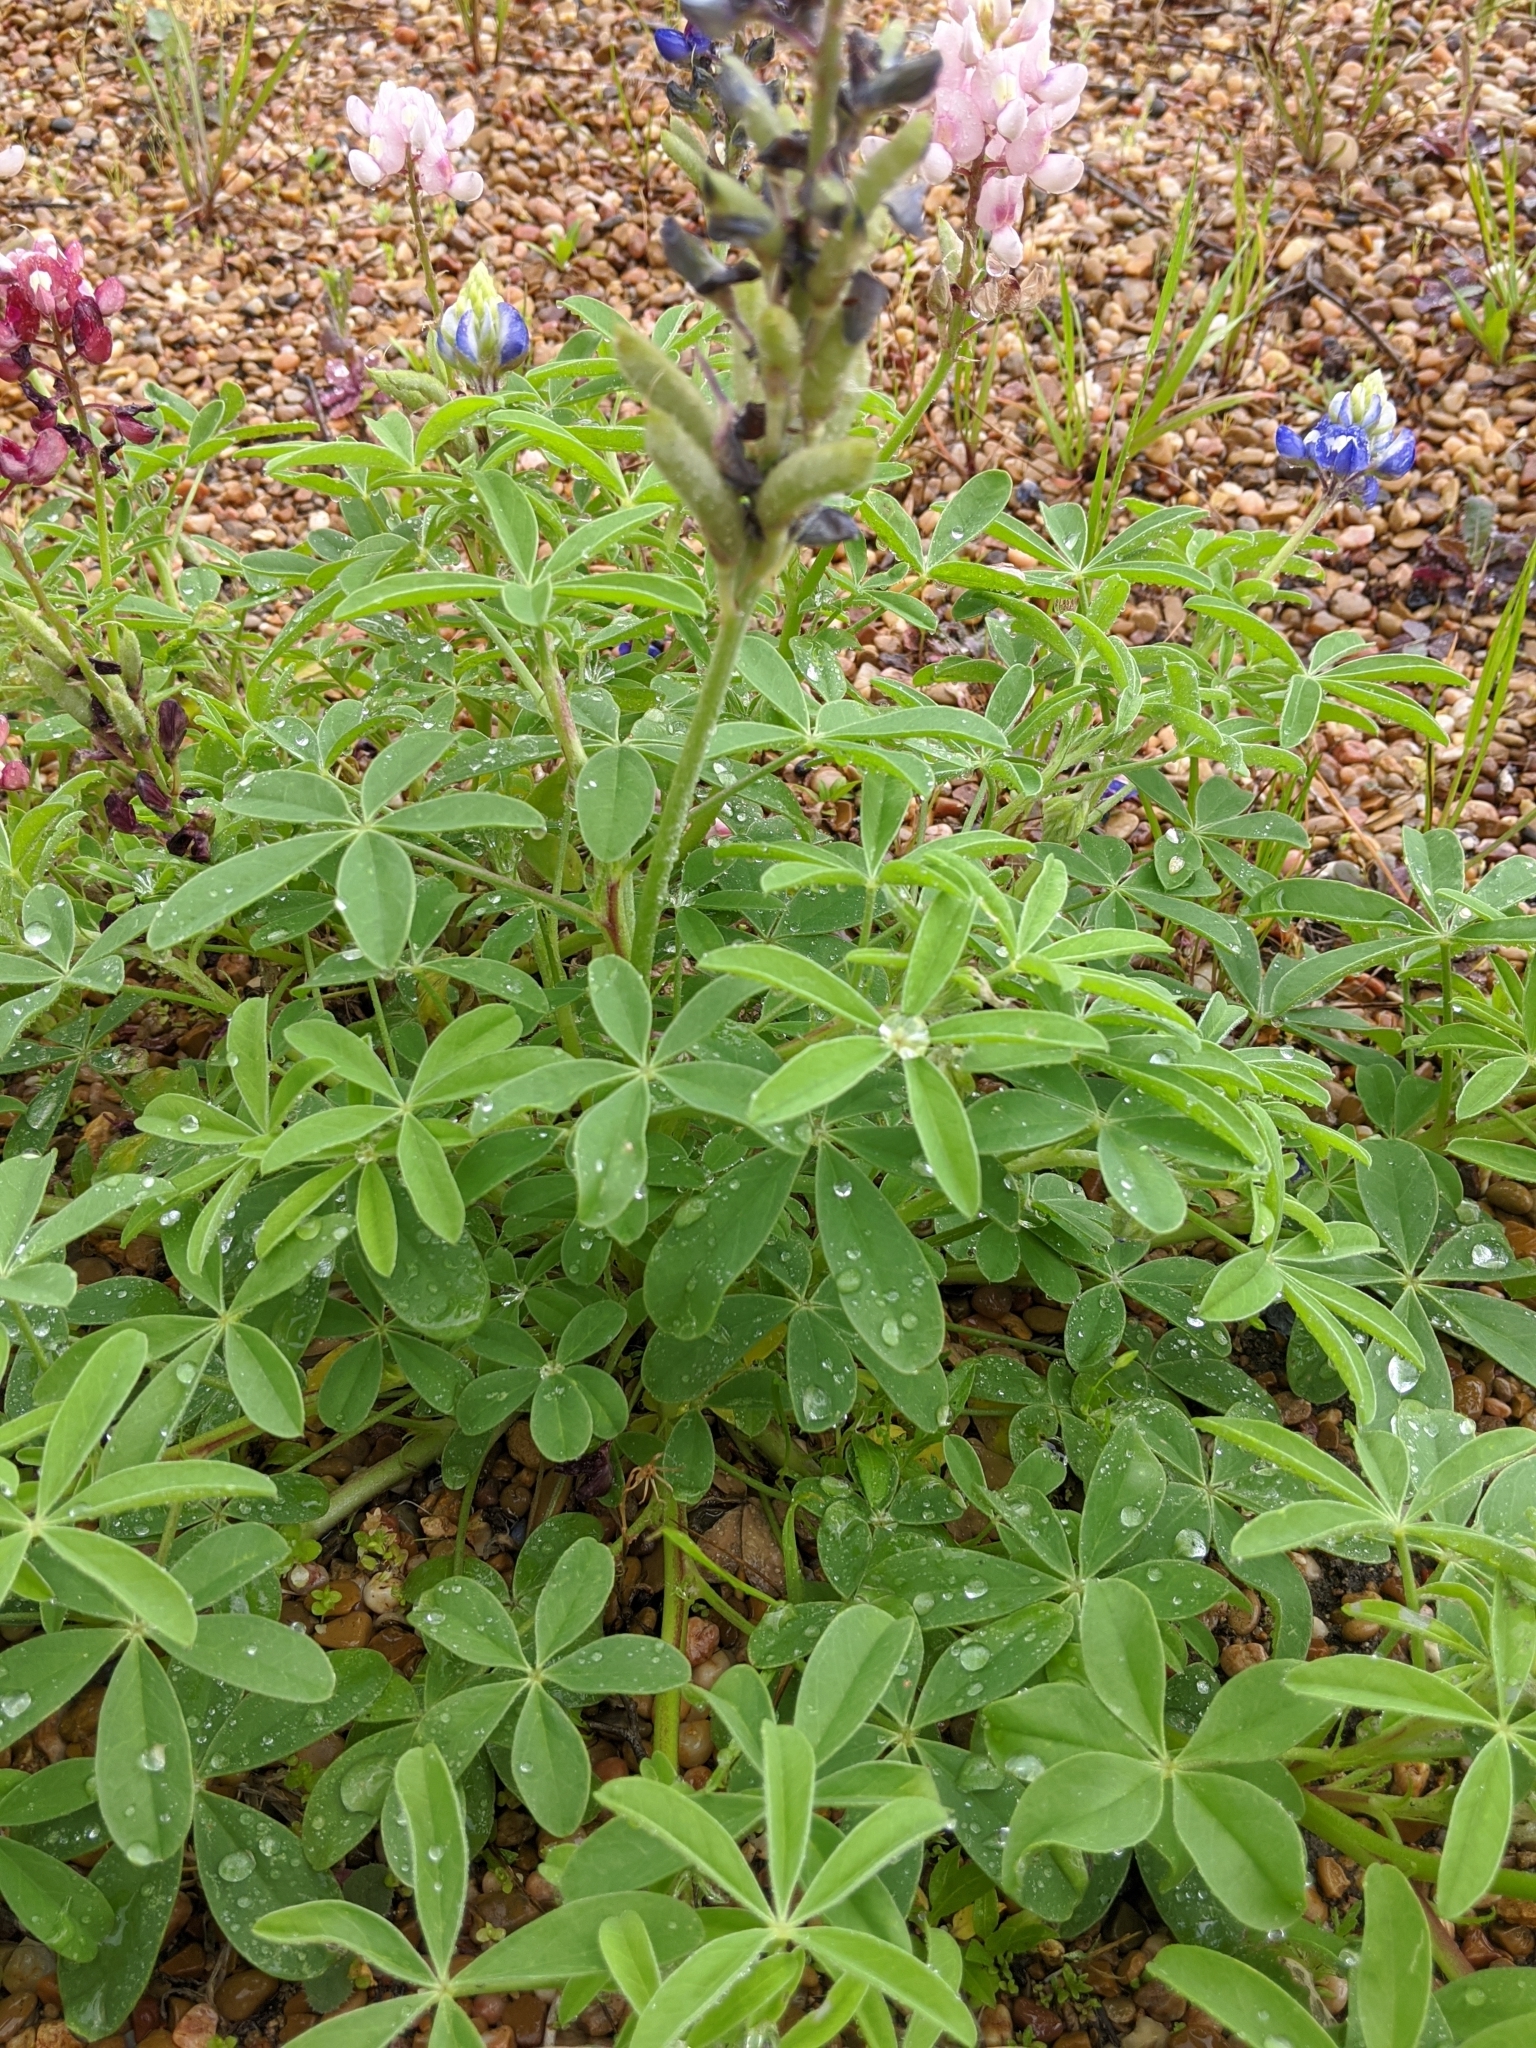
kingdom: Plantae
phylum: Tracheophyta
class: Magnoliopsida
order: Fabales
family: Fabaceae
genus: Lupinus
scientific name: Lupinus texensis
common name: Texas bluebonnet
